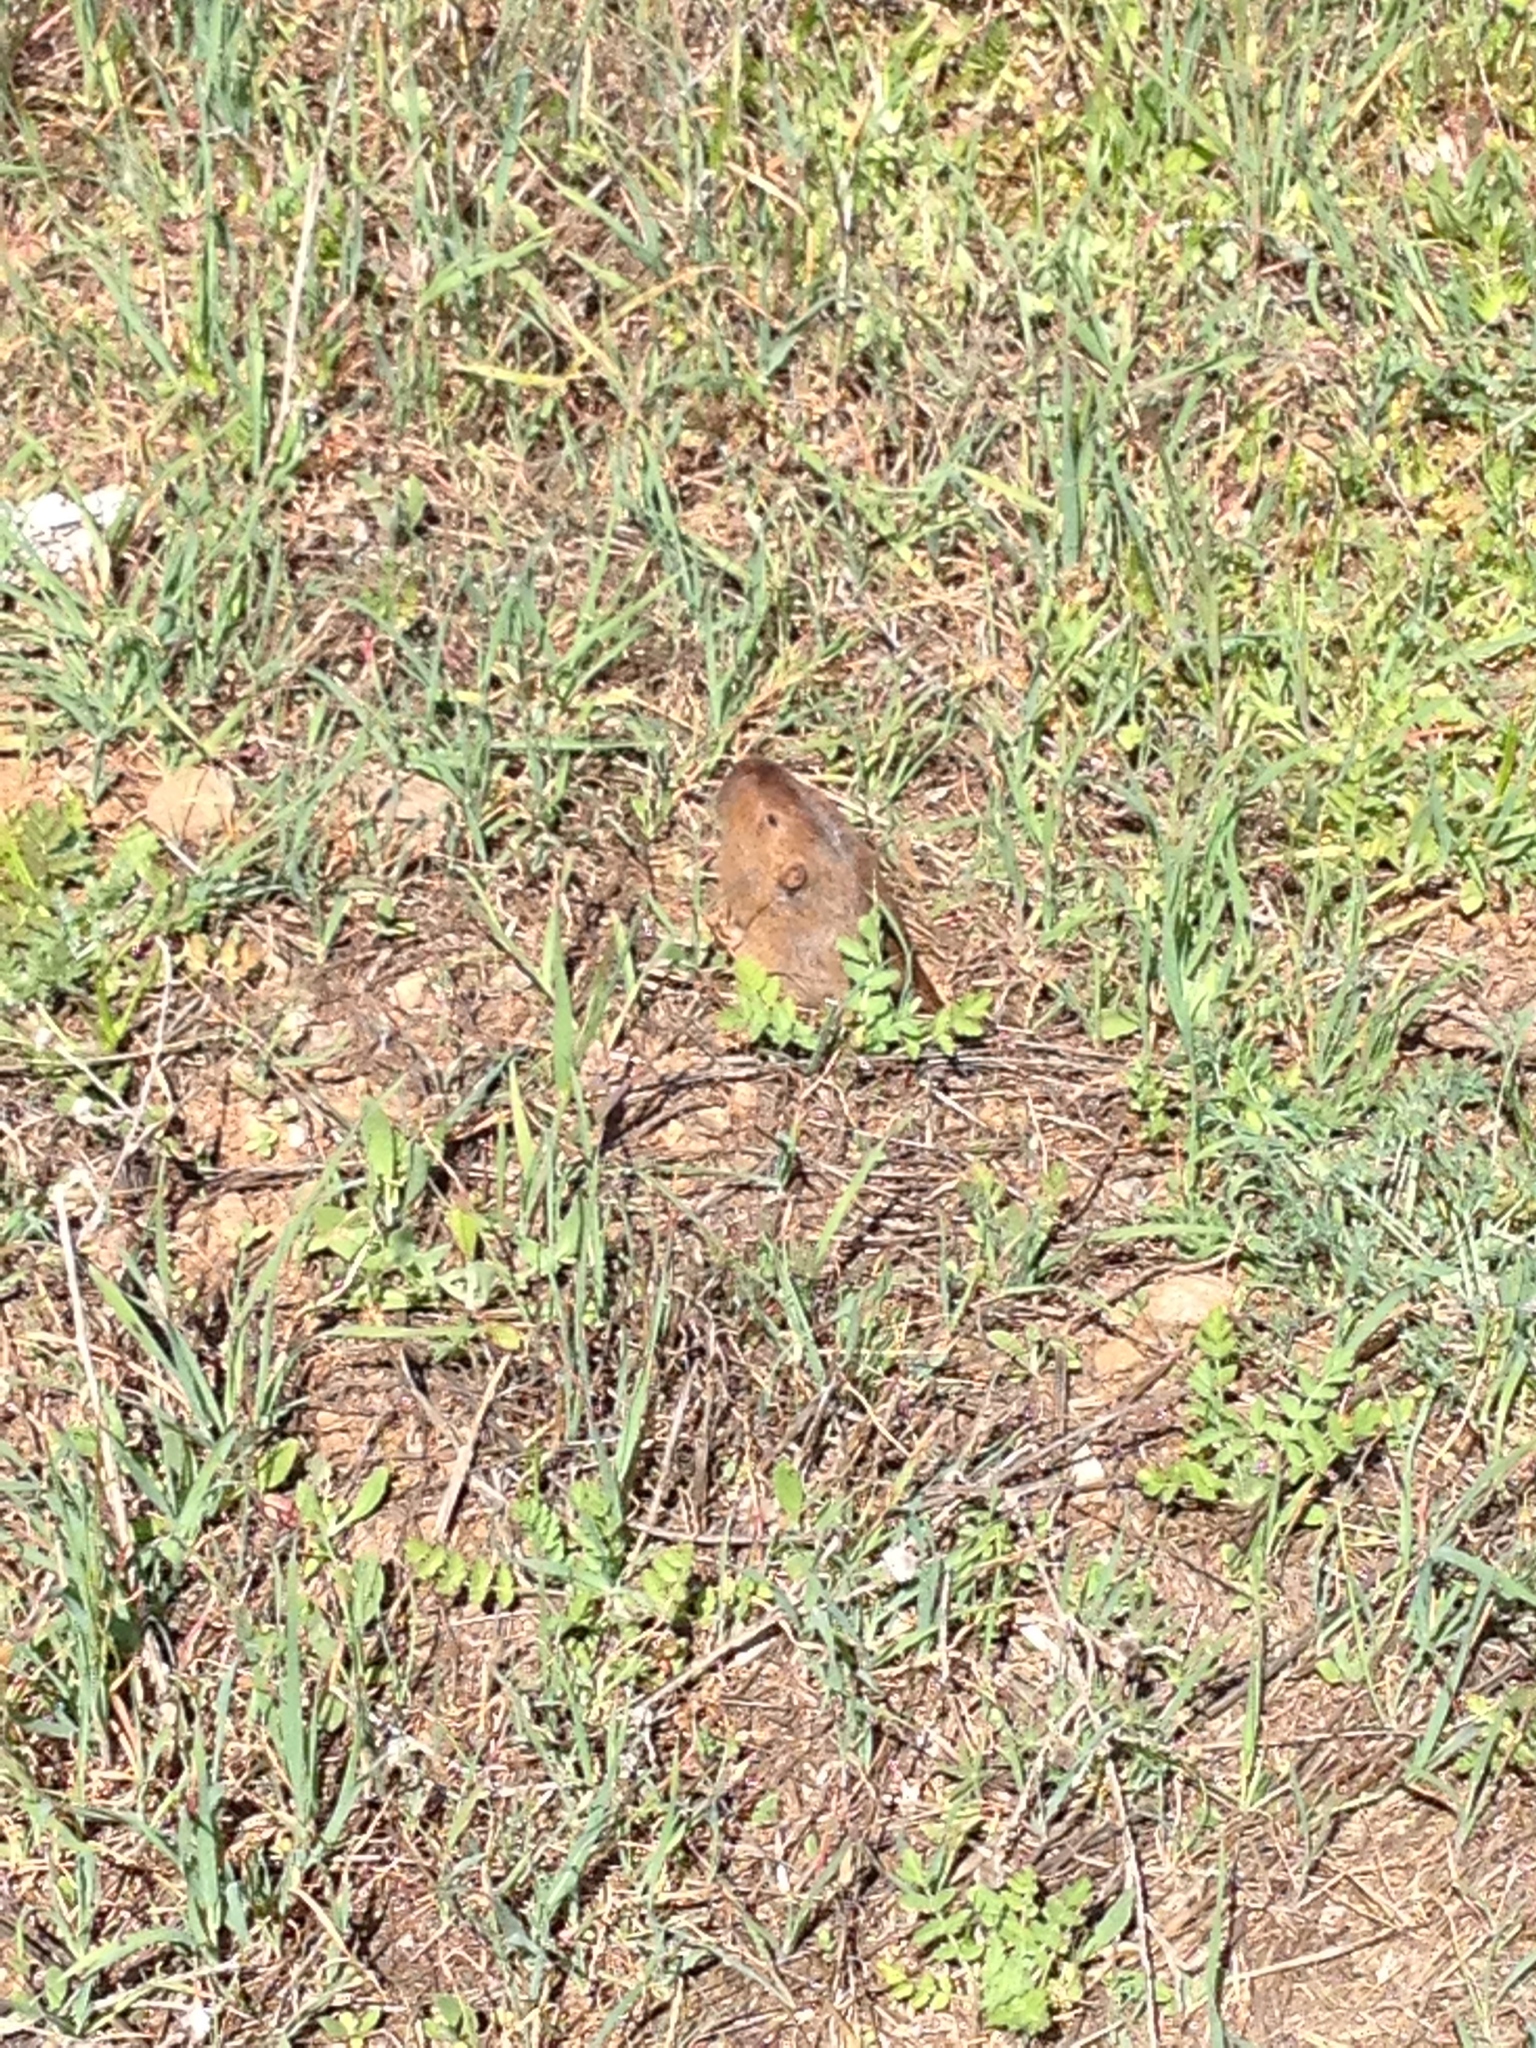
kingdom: Animalia
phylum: Chordata
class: Mammalia
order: Rodentia
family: Geomyidae
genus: Thomomys
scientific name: Thomomys bottae
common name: Botta's pocket gopher
